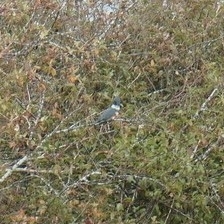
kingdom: Animalia
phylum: Chordata
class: Aves
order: Coraciiformes
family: Alcedinidae
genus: Megaceryle
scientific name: Megaceryle alcyon
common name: Belted kingfisher
